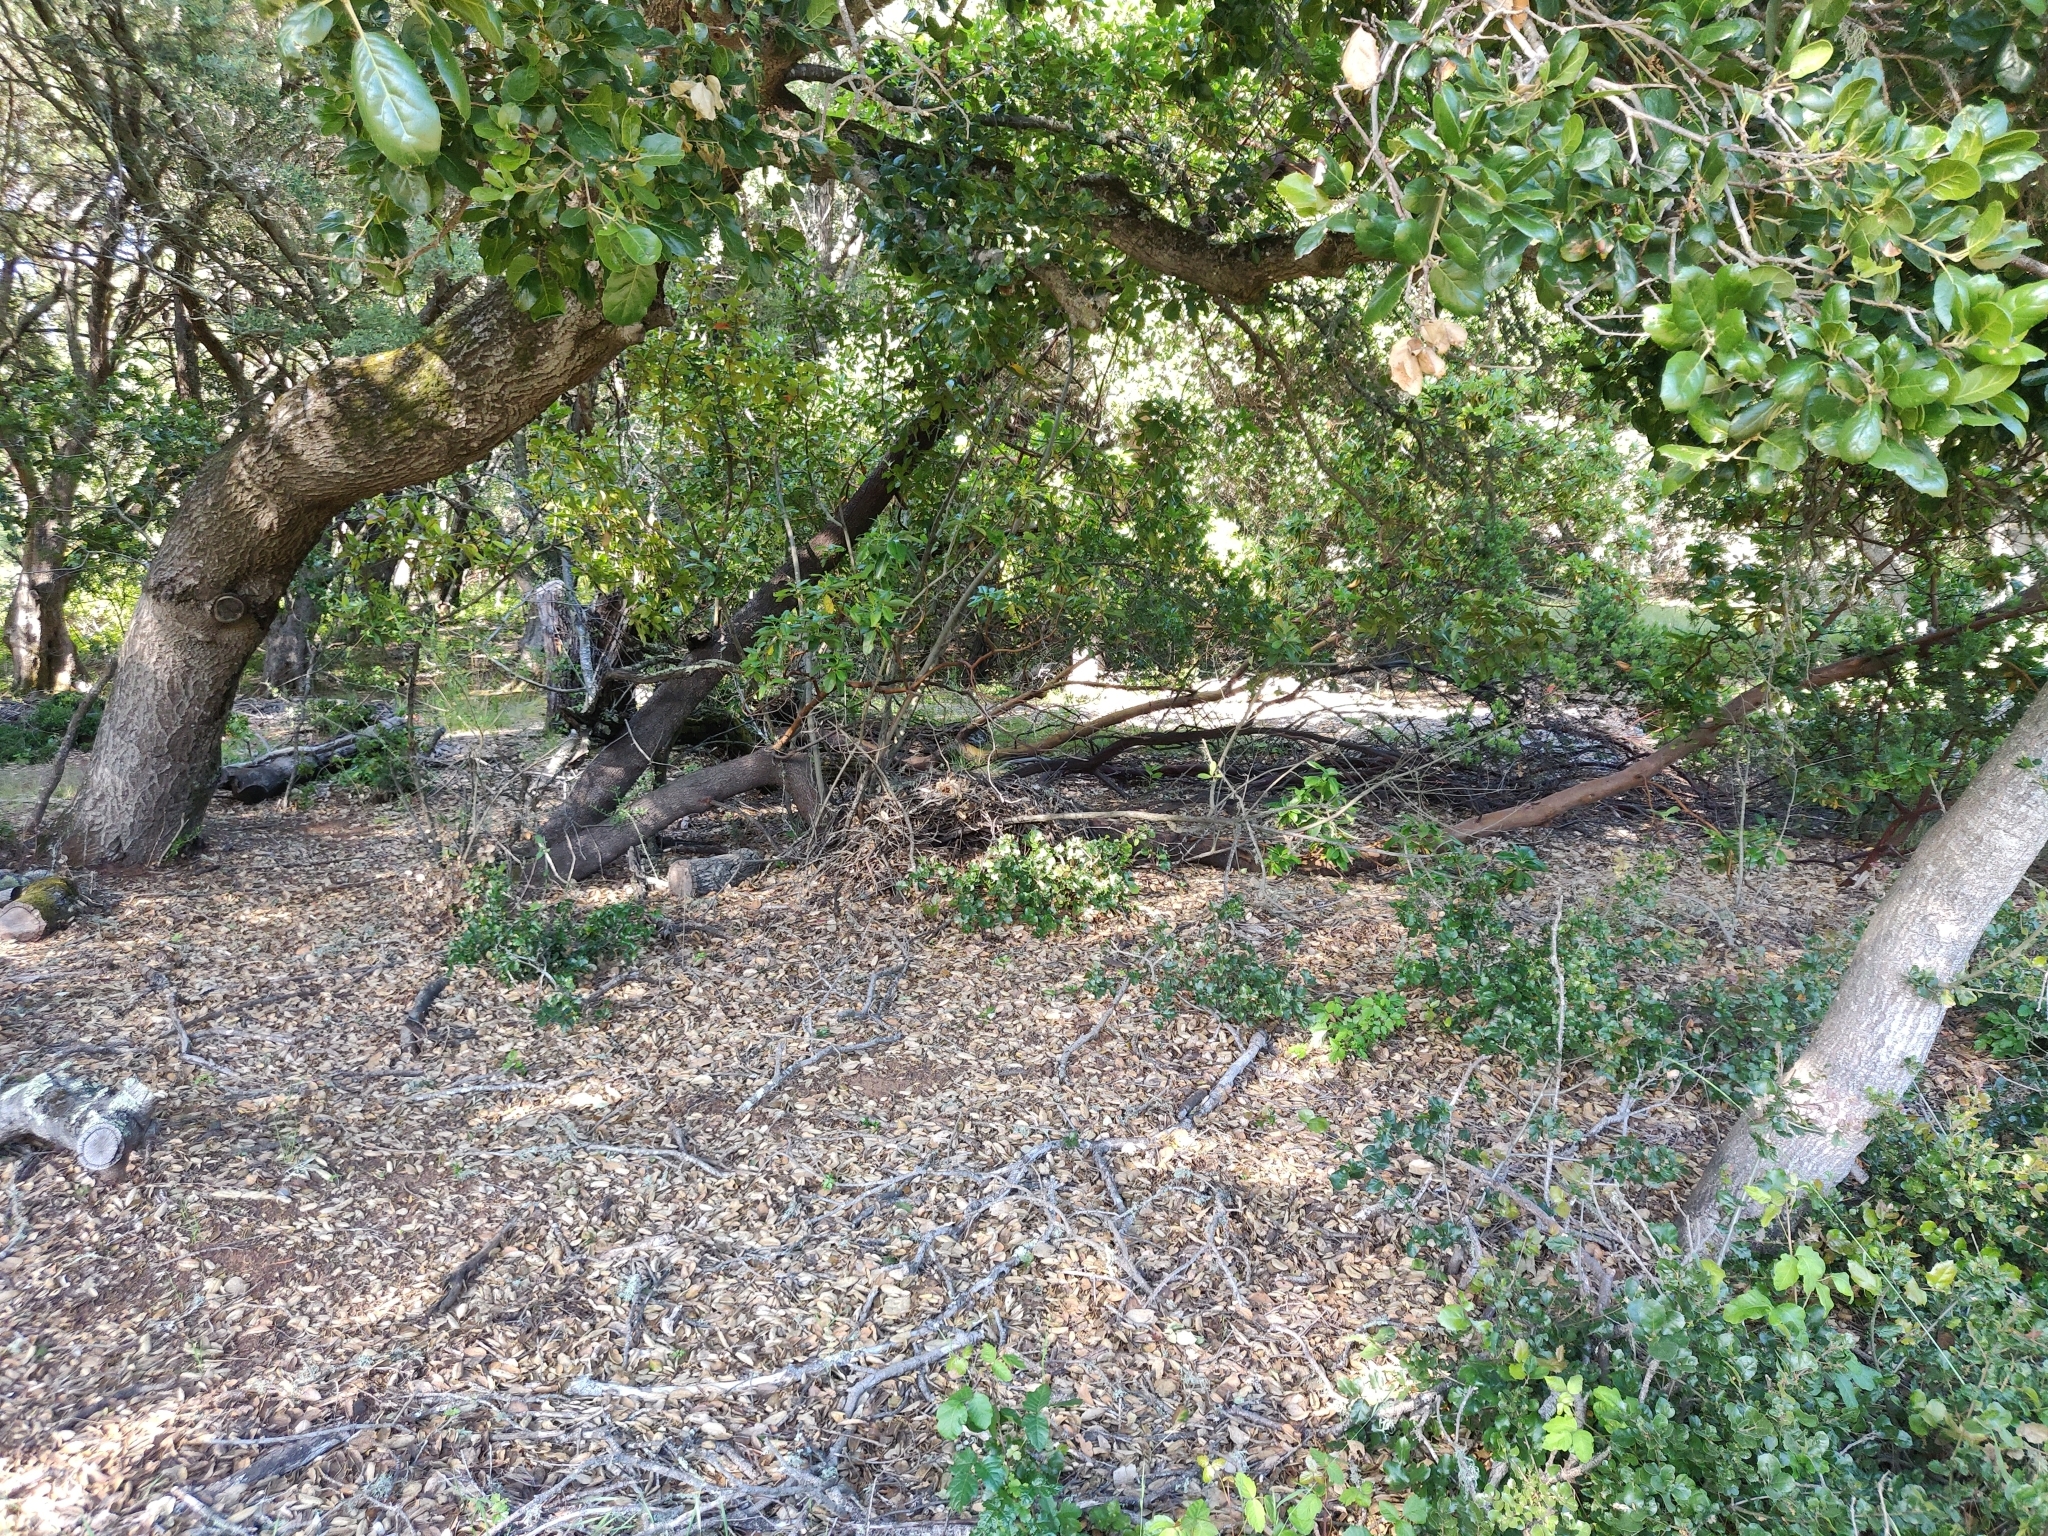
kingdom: Animalia
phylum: Chordata
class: Mammalia
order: Rodentia
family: Cricetidae
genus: Neotoma
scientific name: Neotoma fuscipes
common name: Dusky-footed woodrat
